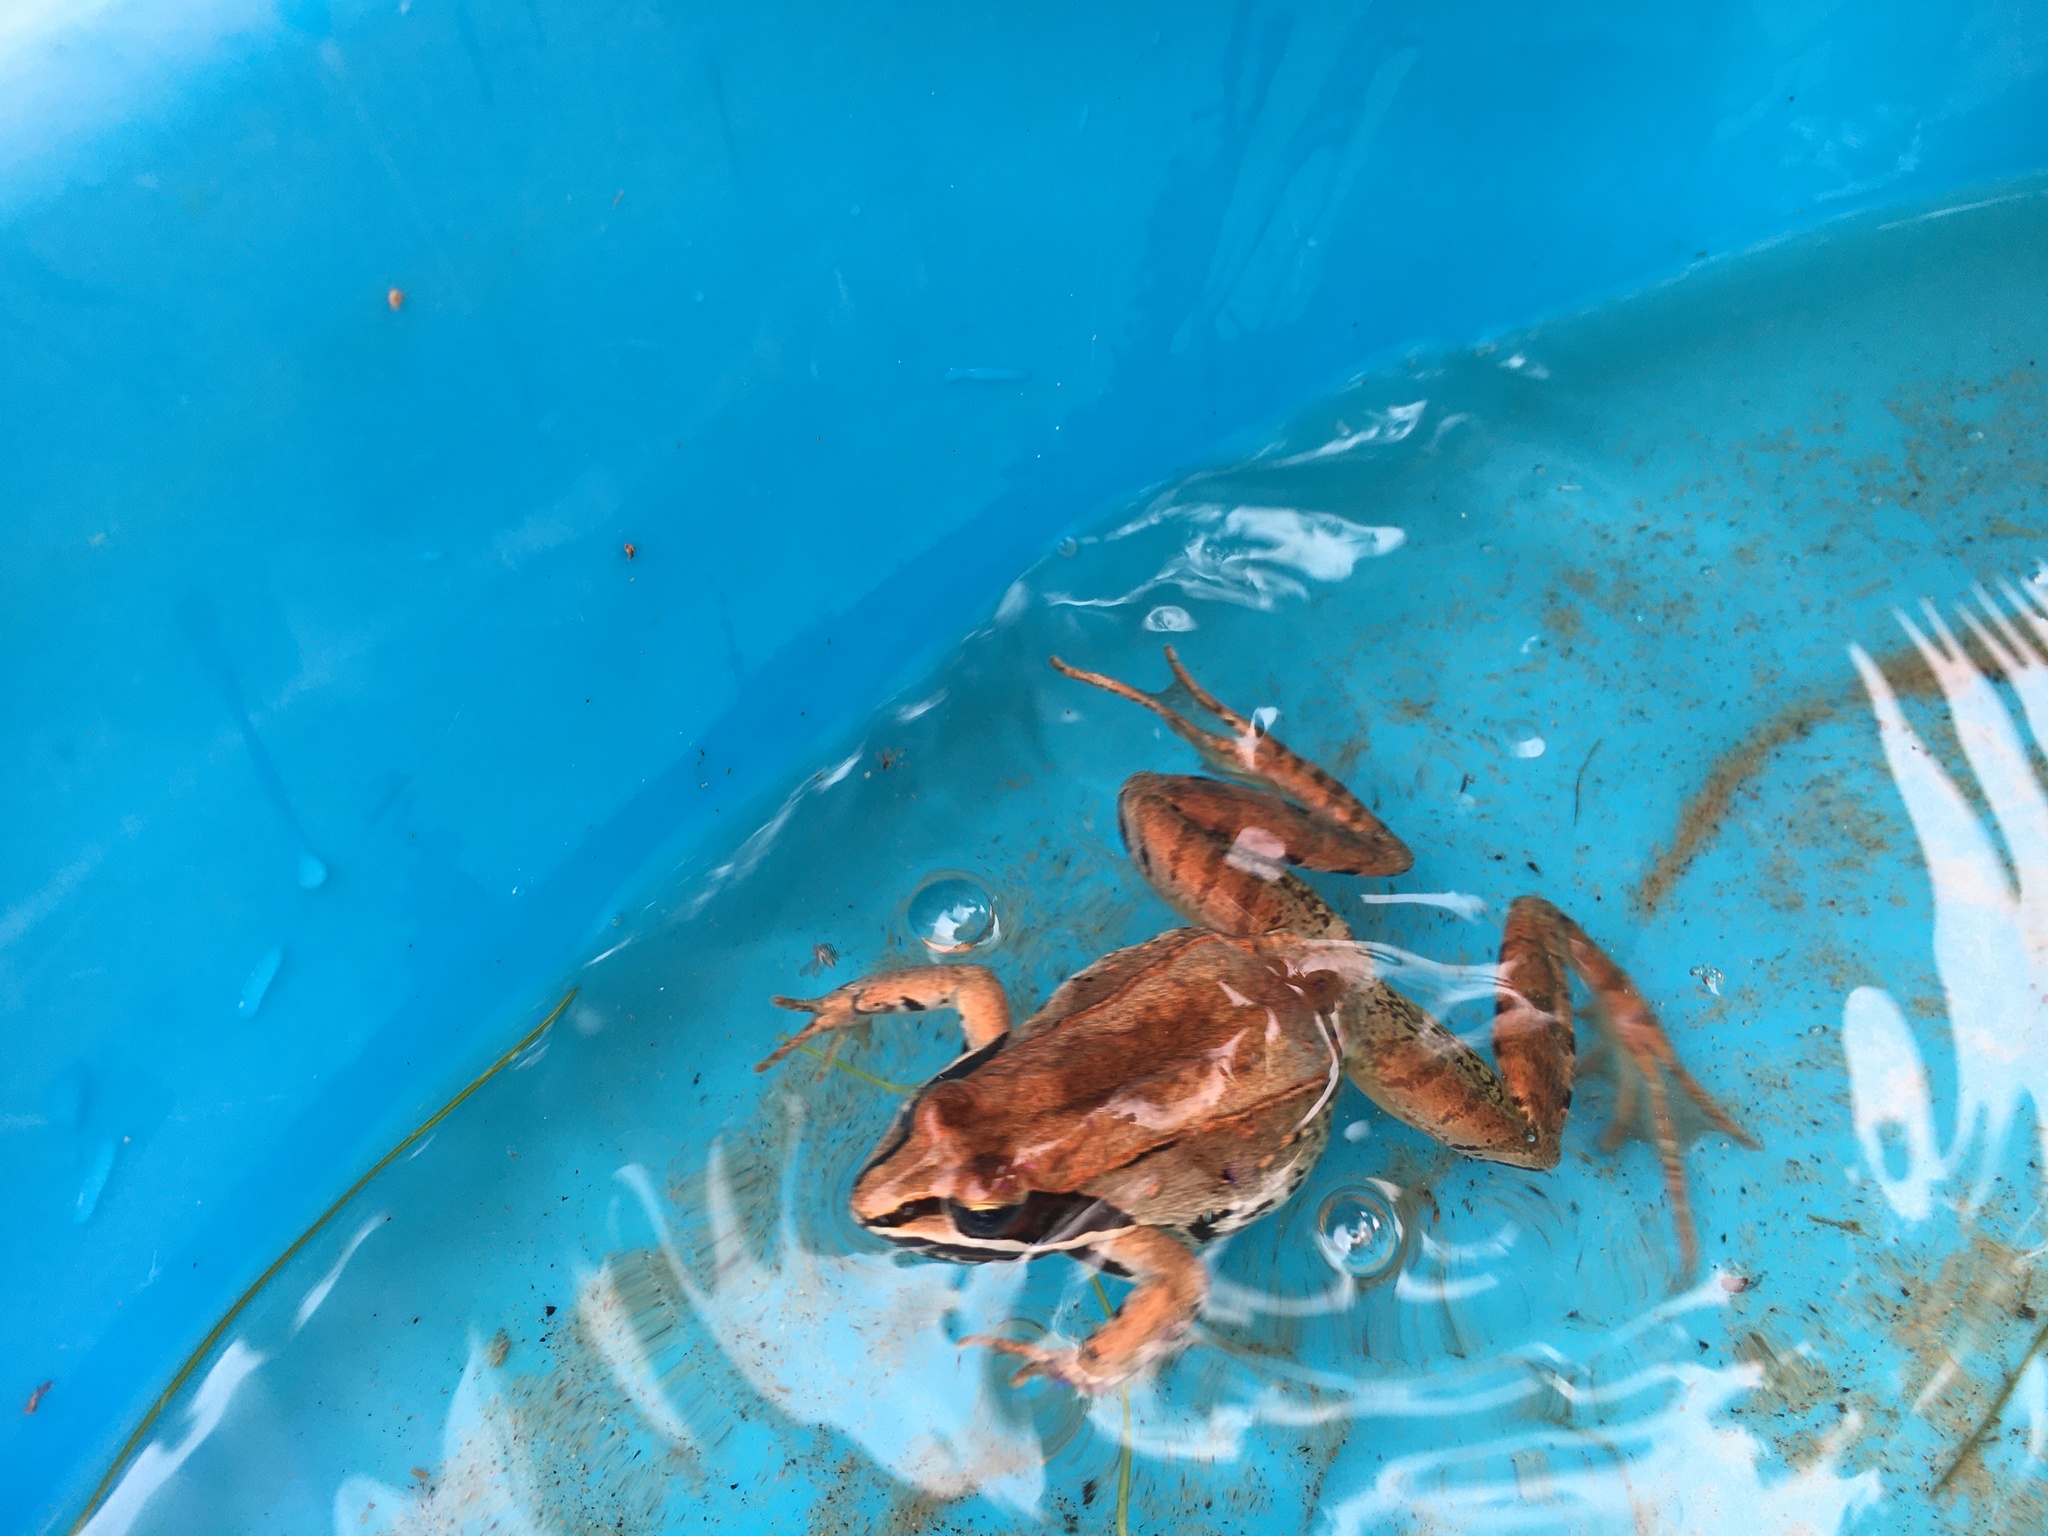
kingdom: Animalia
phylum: Chordata
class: Amphibia
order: Anura
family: Ranidae
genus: Lithobates
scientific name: Lithobates sylvaticus
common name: Wood frog
